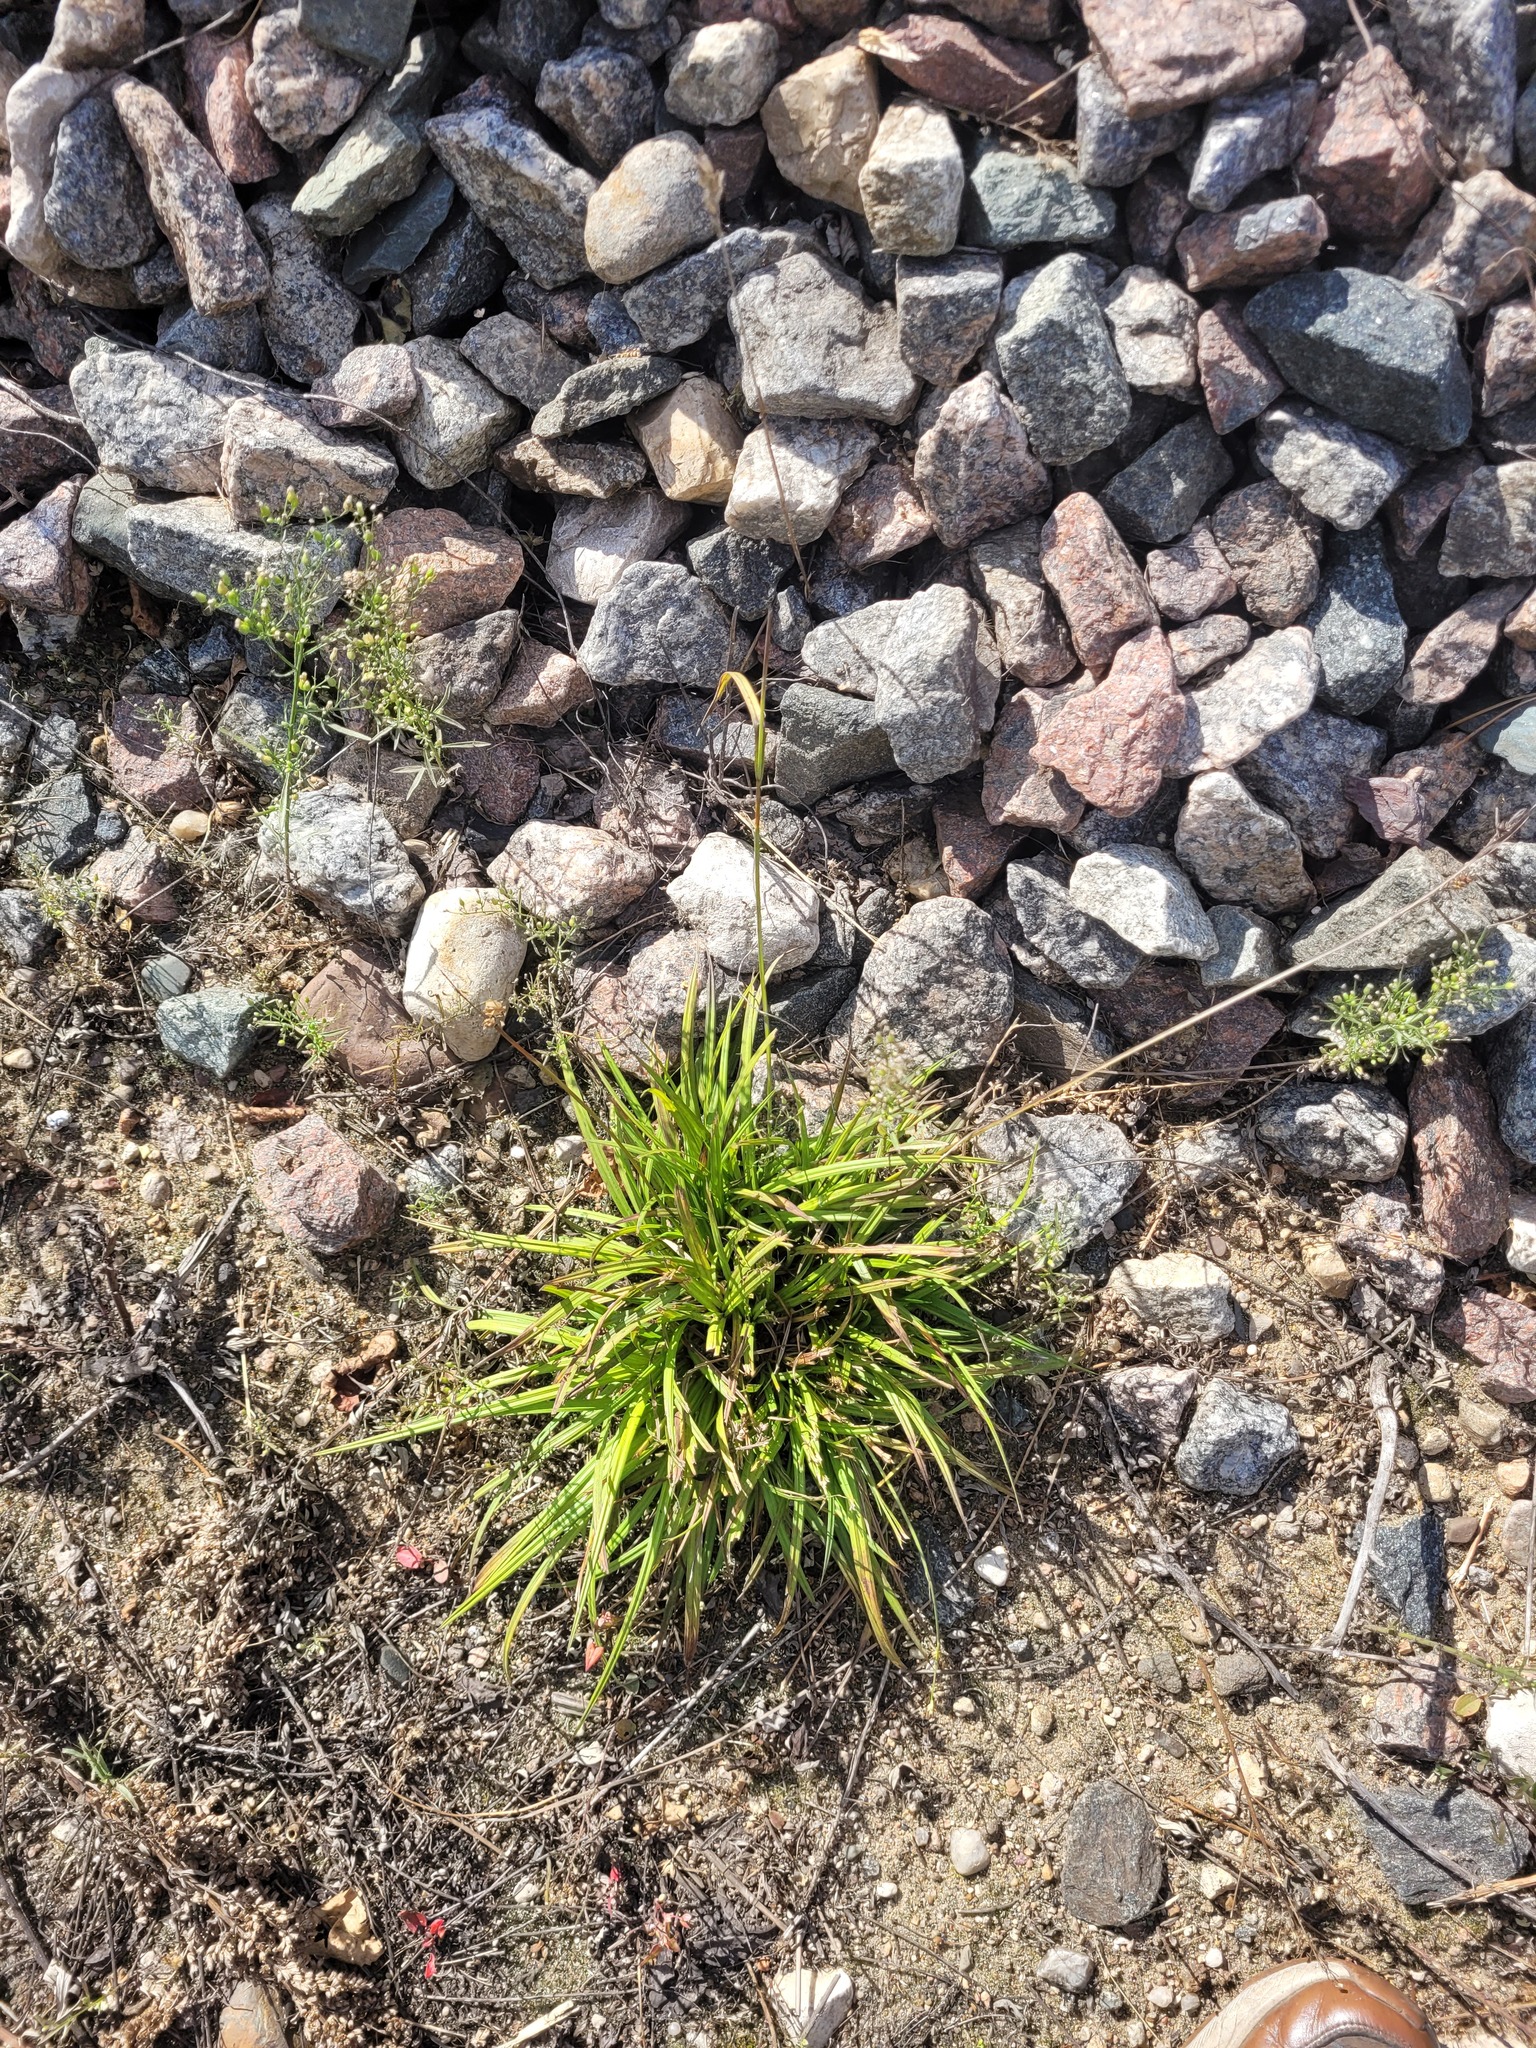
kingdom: Plantae
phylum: Tracheophyta
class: Liliopsida
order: Poales
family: Cyperaceae
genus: Carex
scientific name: Carex pallescens
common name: Pale sedge
